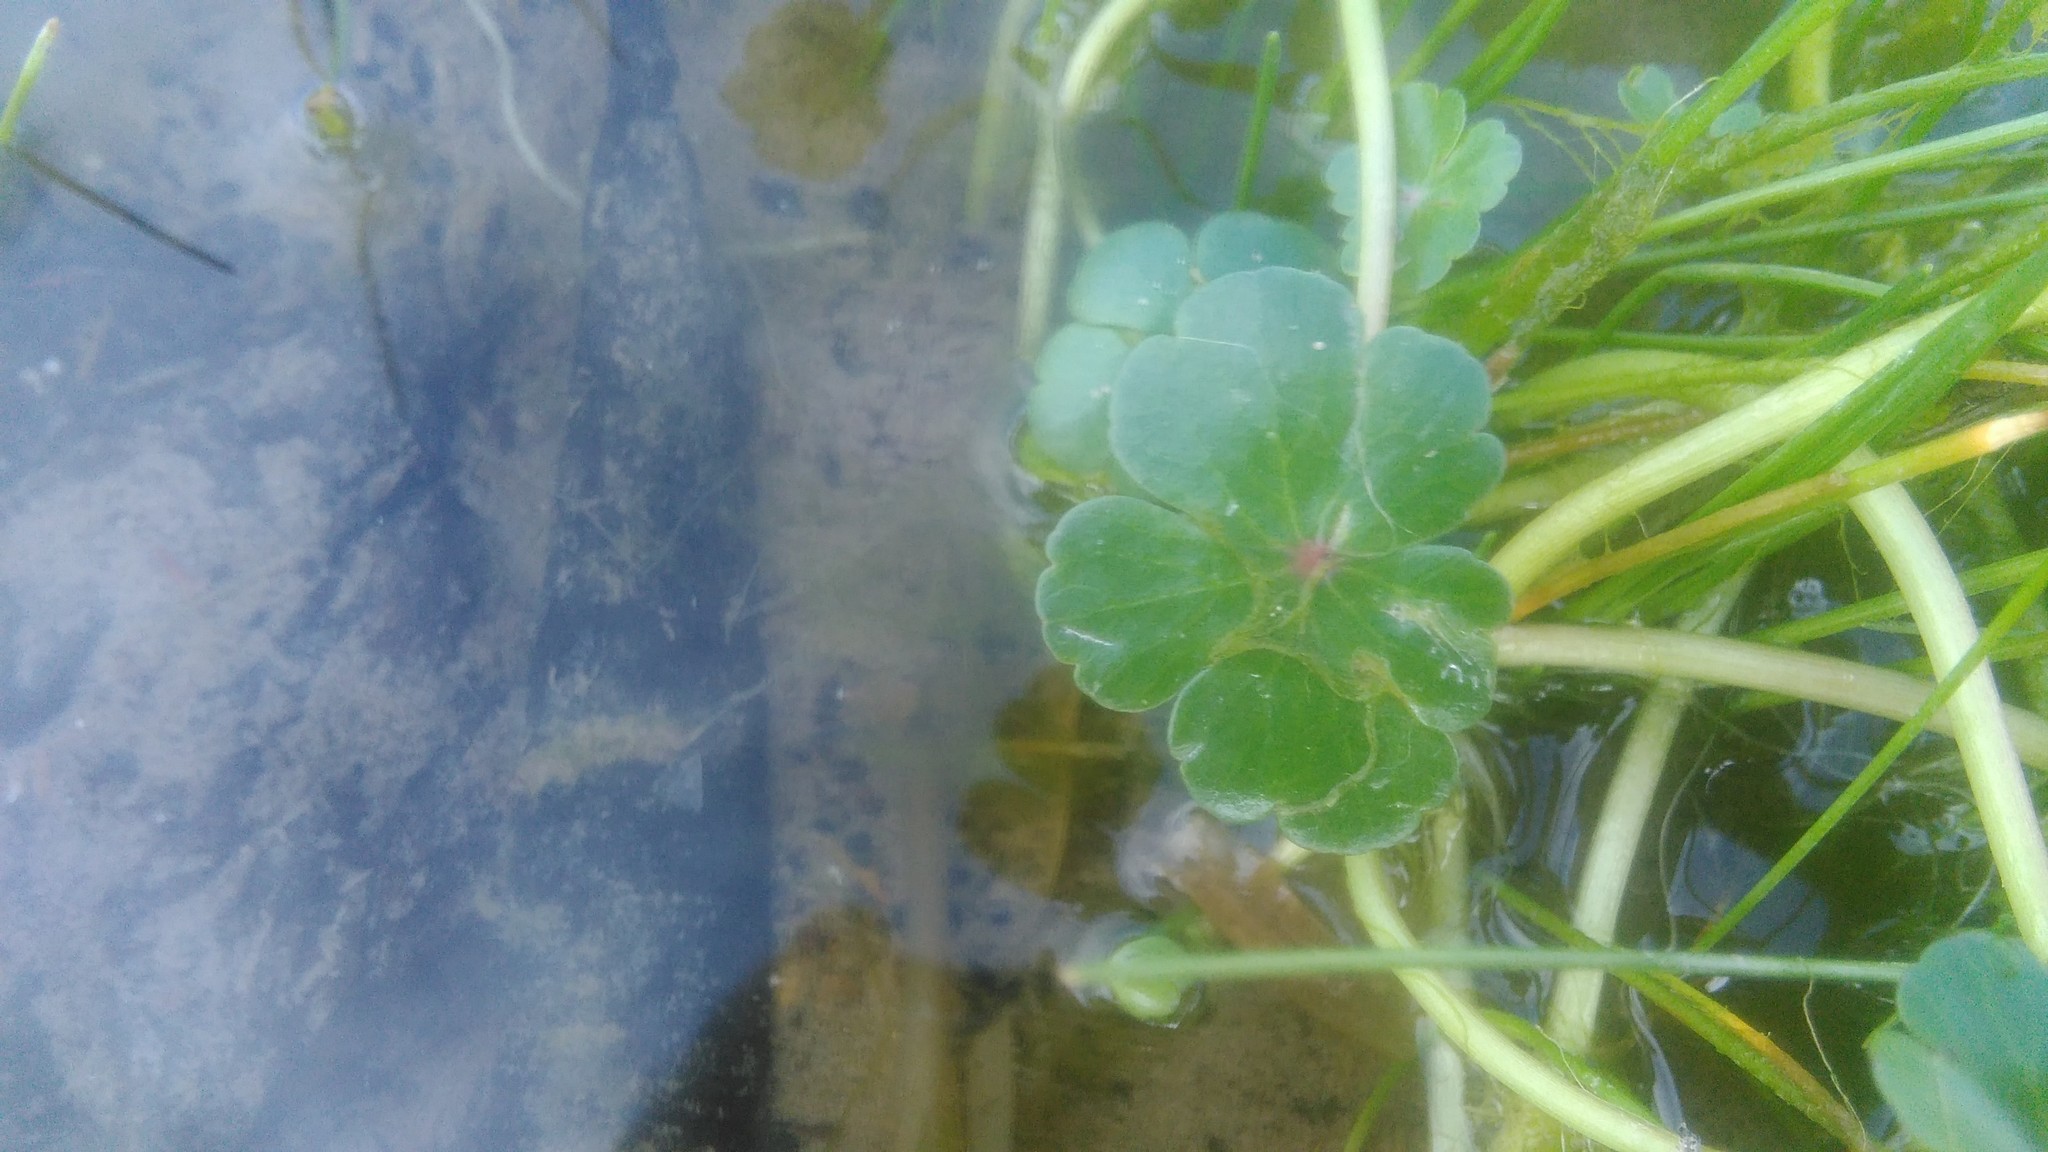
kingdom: Plantae
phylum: Tracheophyta
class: Magnoliopsida
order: Apiales
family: Araliaceae
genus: Hydrocotyle
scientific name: Hydrocotyle ranunculoides
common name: Floating pennywort
